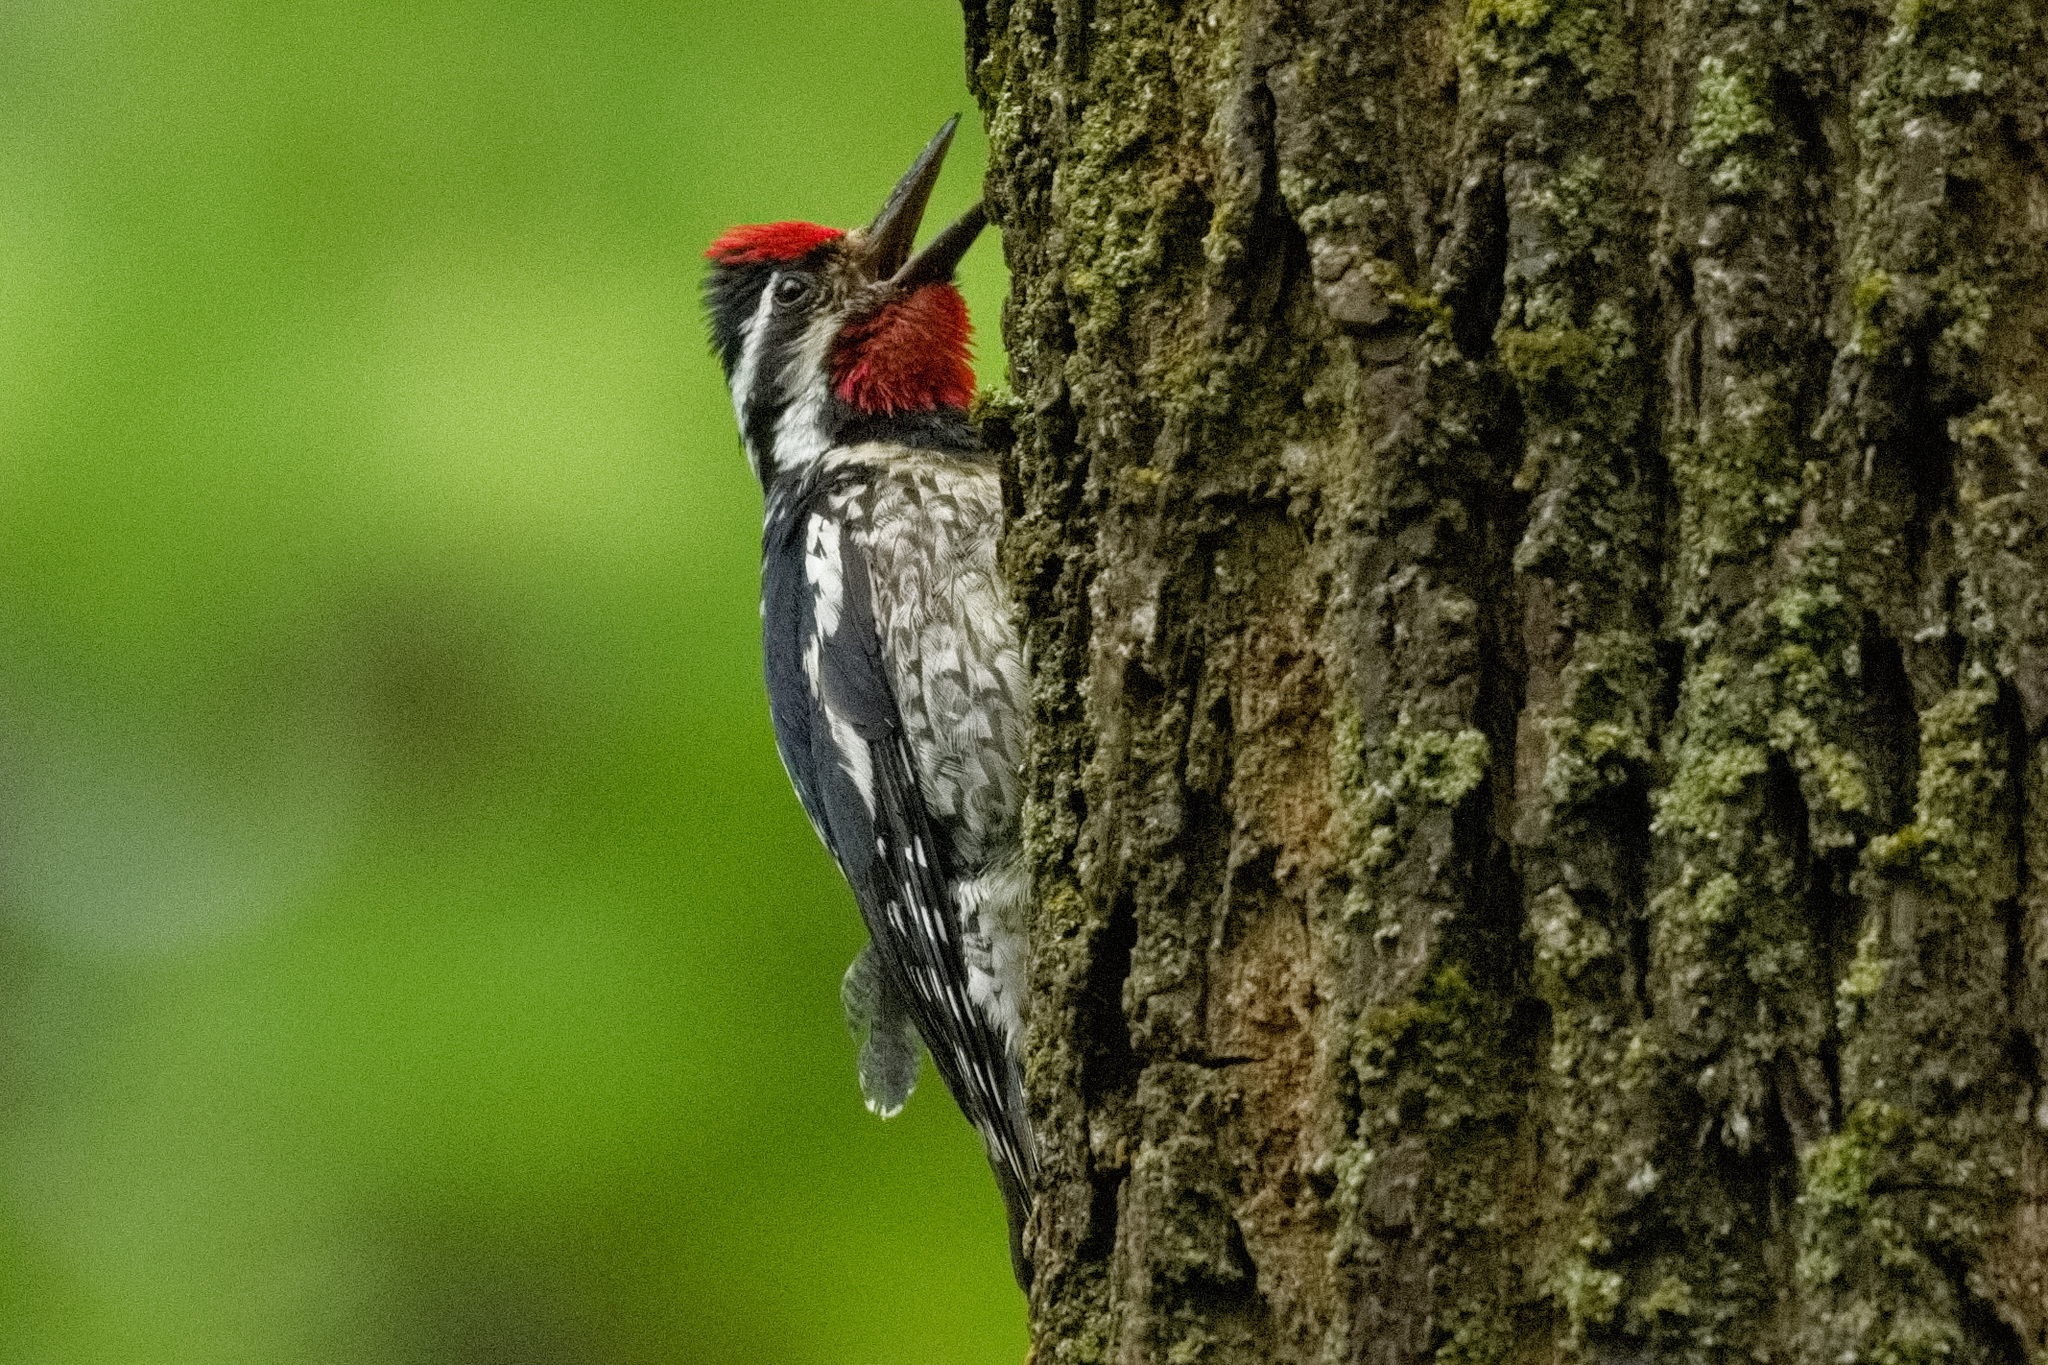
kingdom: Animalia
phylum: Chordata
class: Aves
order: Piciformes
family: Picidae
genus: Sphyrapicus
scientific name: Sphyrapicus varius
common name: Yellow-bellied sapsucker
